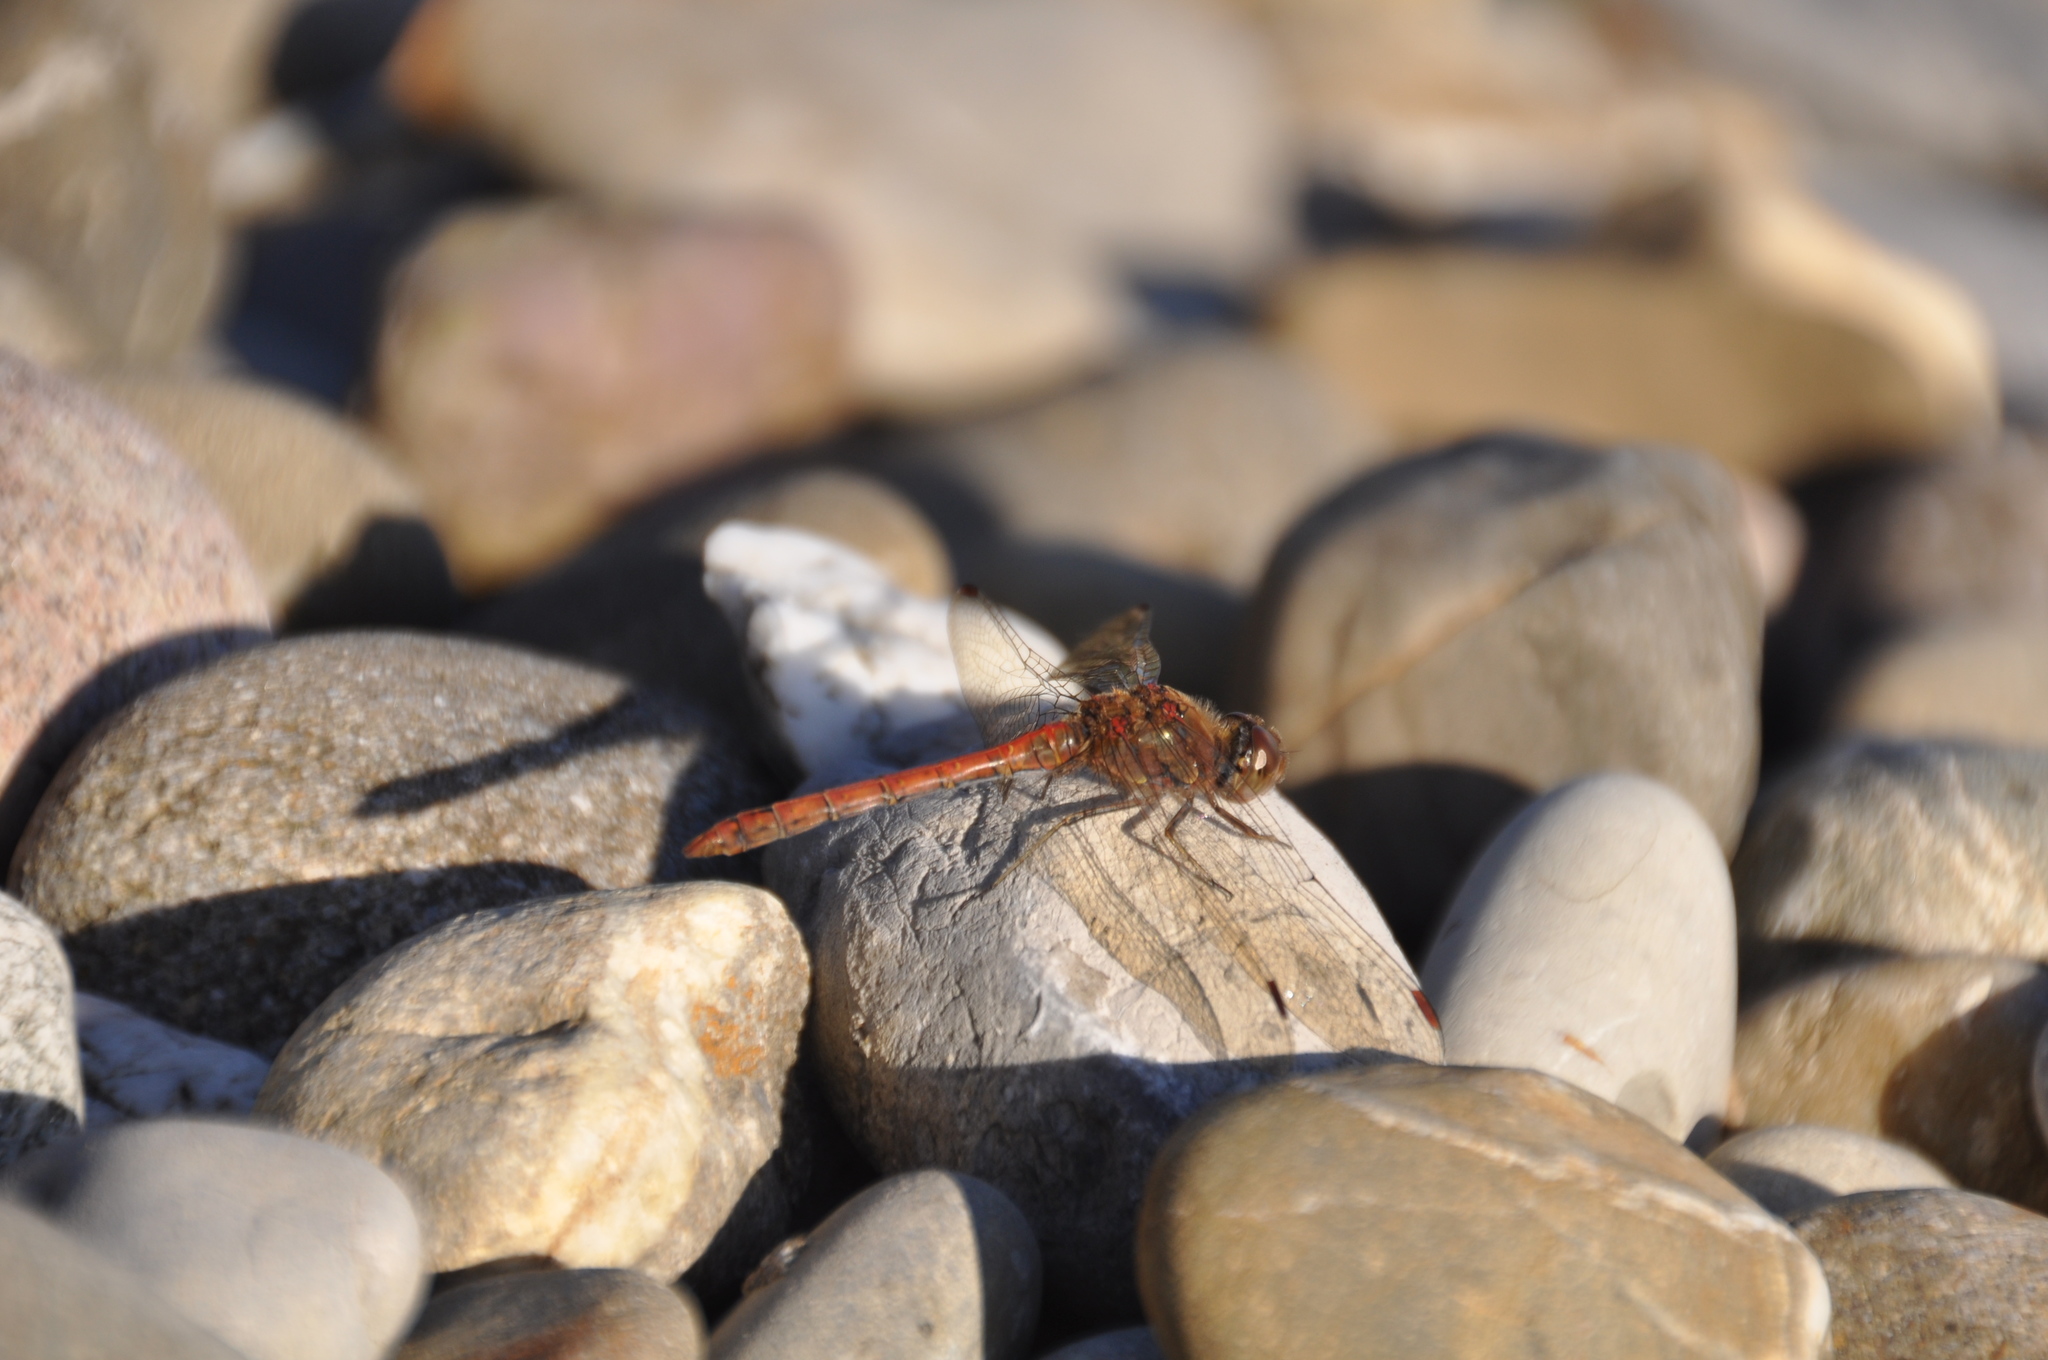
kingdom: Animalia
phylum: Arthropoda
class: Insecta
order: Odonata
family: Libellulidae
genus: Sympetrum
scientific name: Sympetrum striolatum
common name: Common darter
